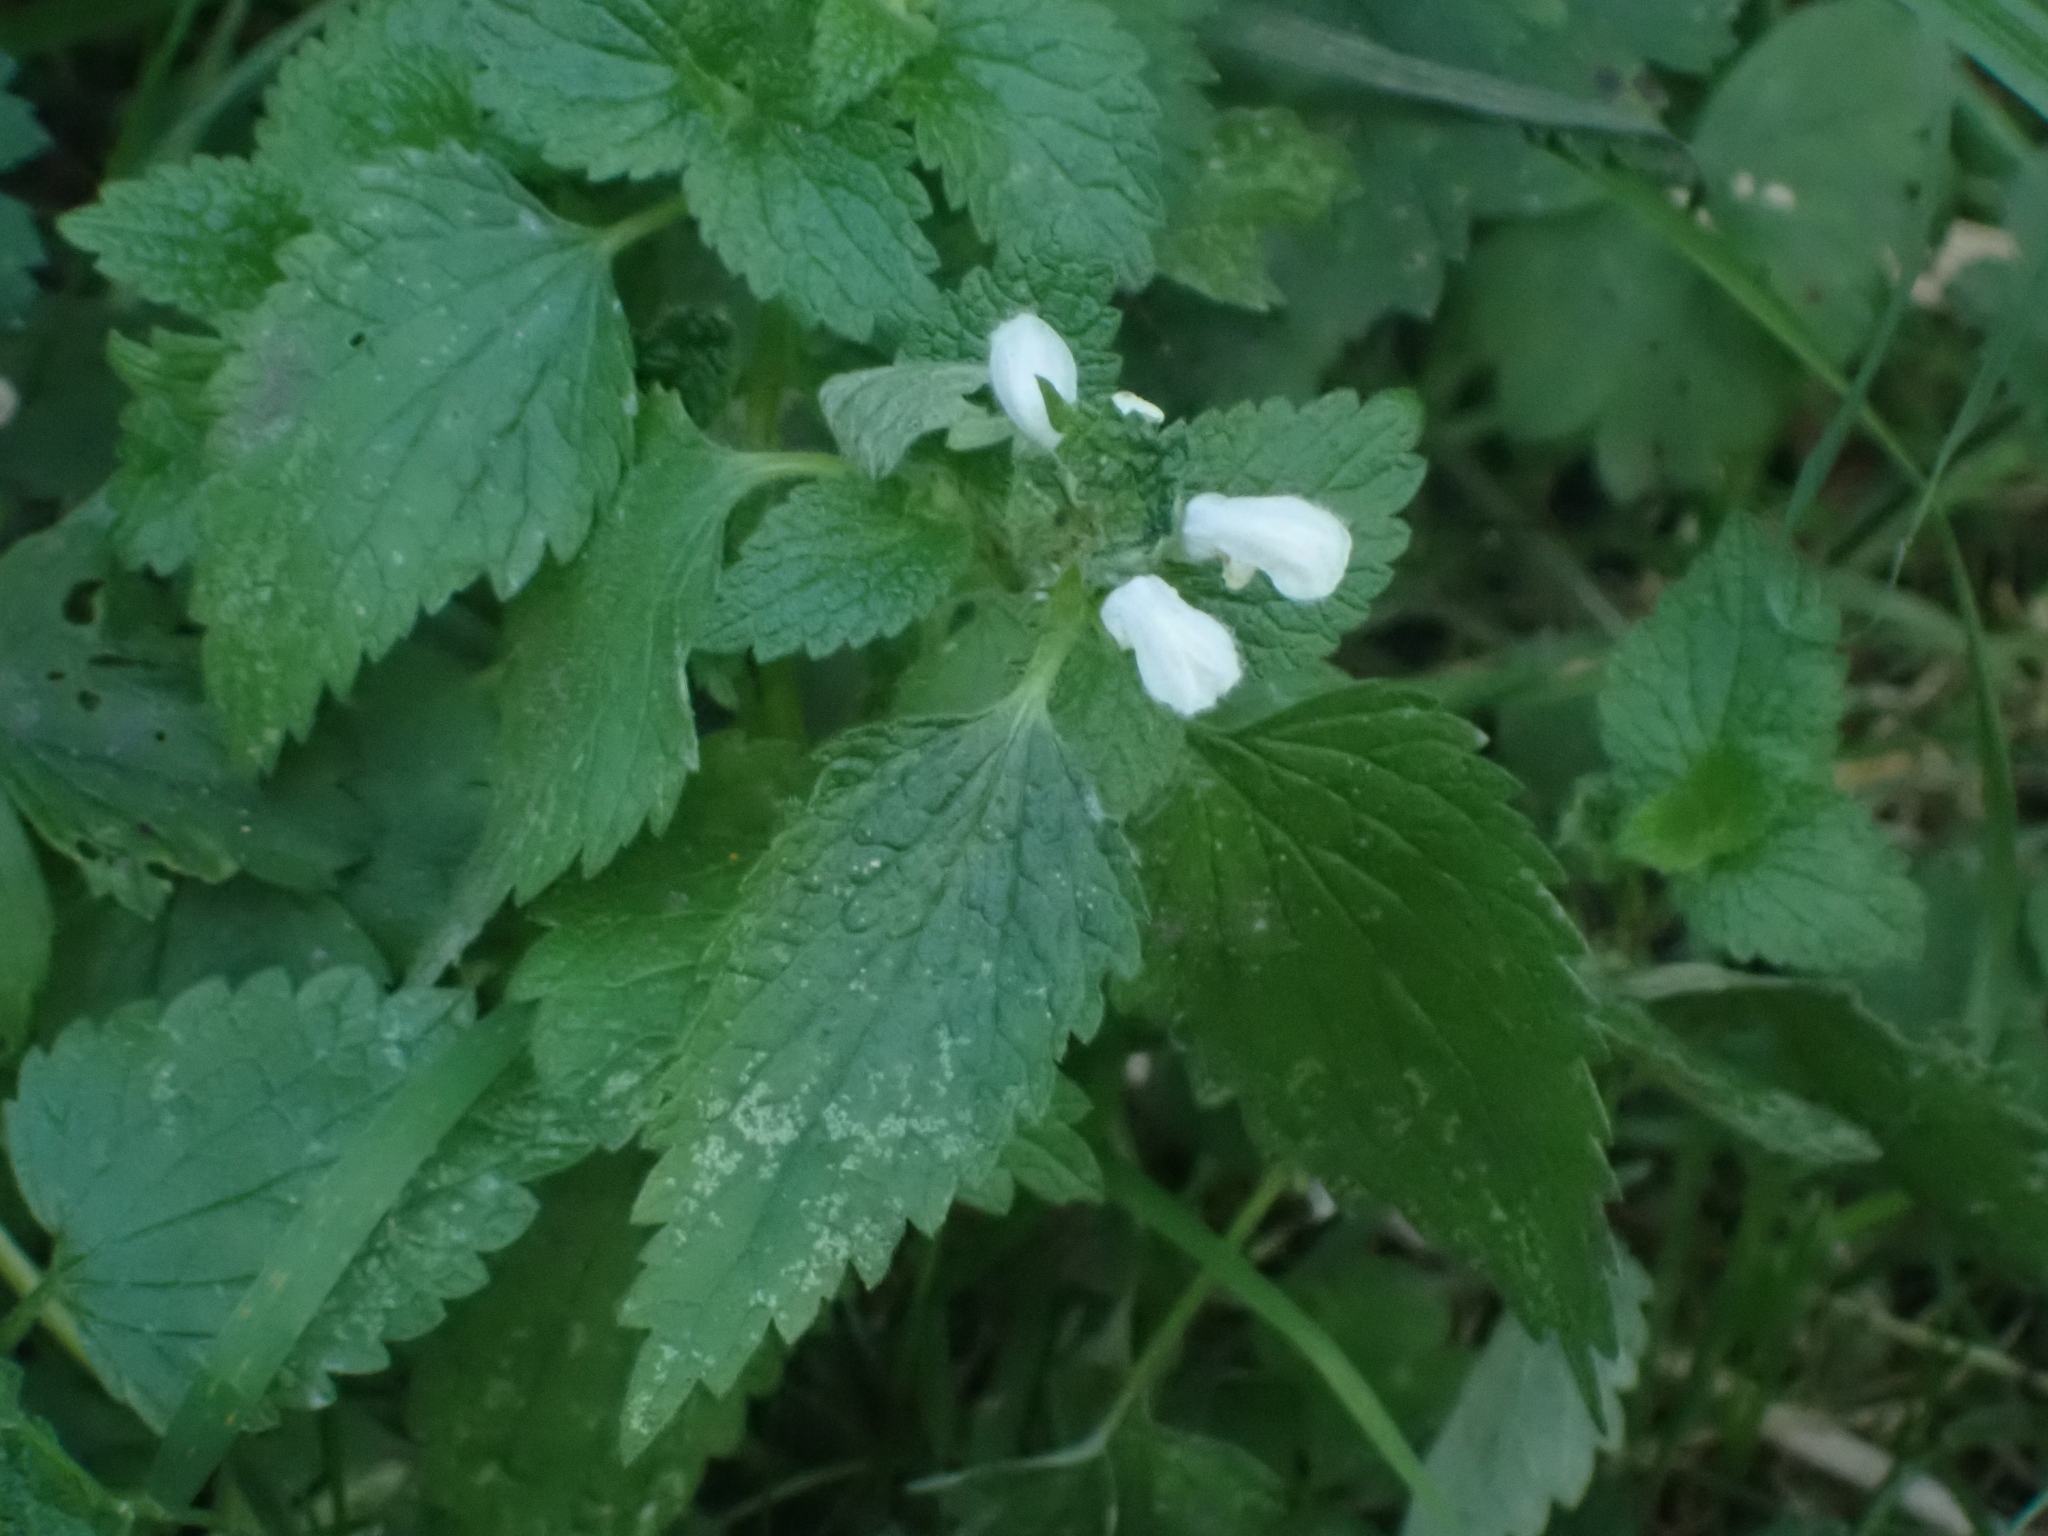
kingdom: Plantae
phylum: Tracheophyta
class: Magnoliopsida
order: Lamiales
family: Lamiaceae
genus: Lamium
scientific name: Lamium album
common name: White dead-nettle
